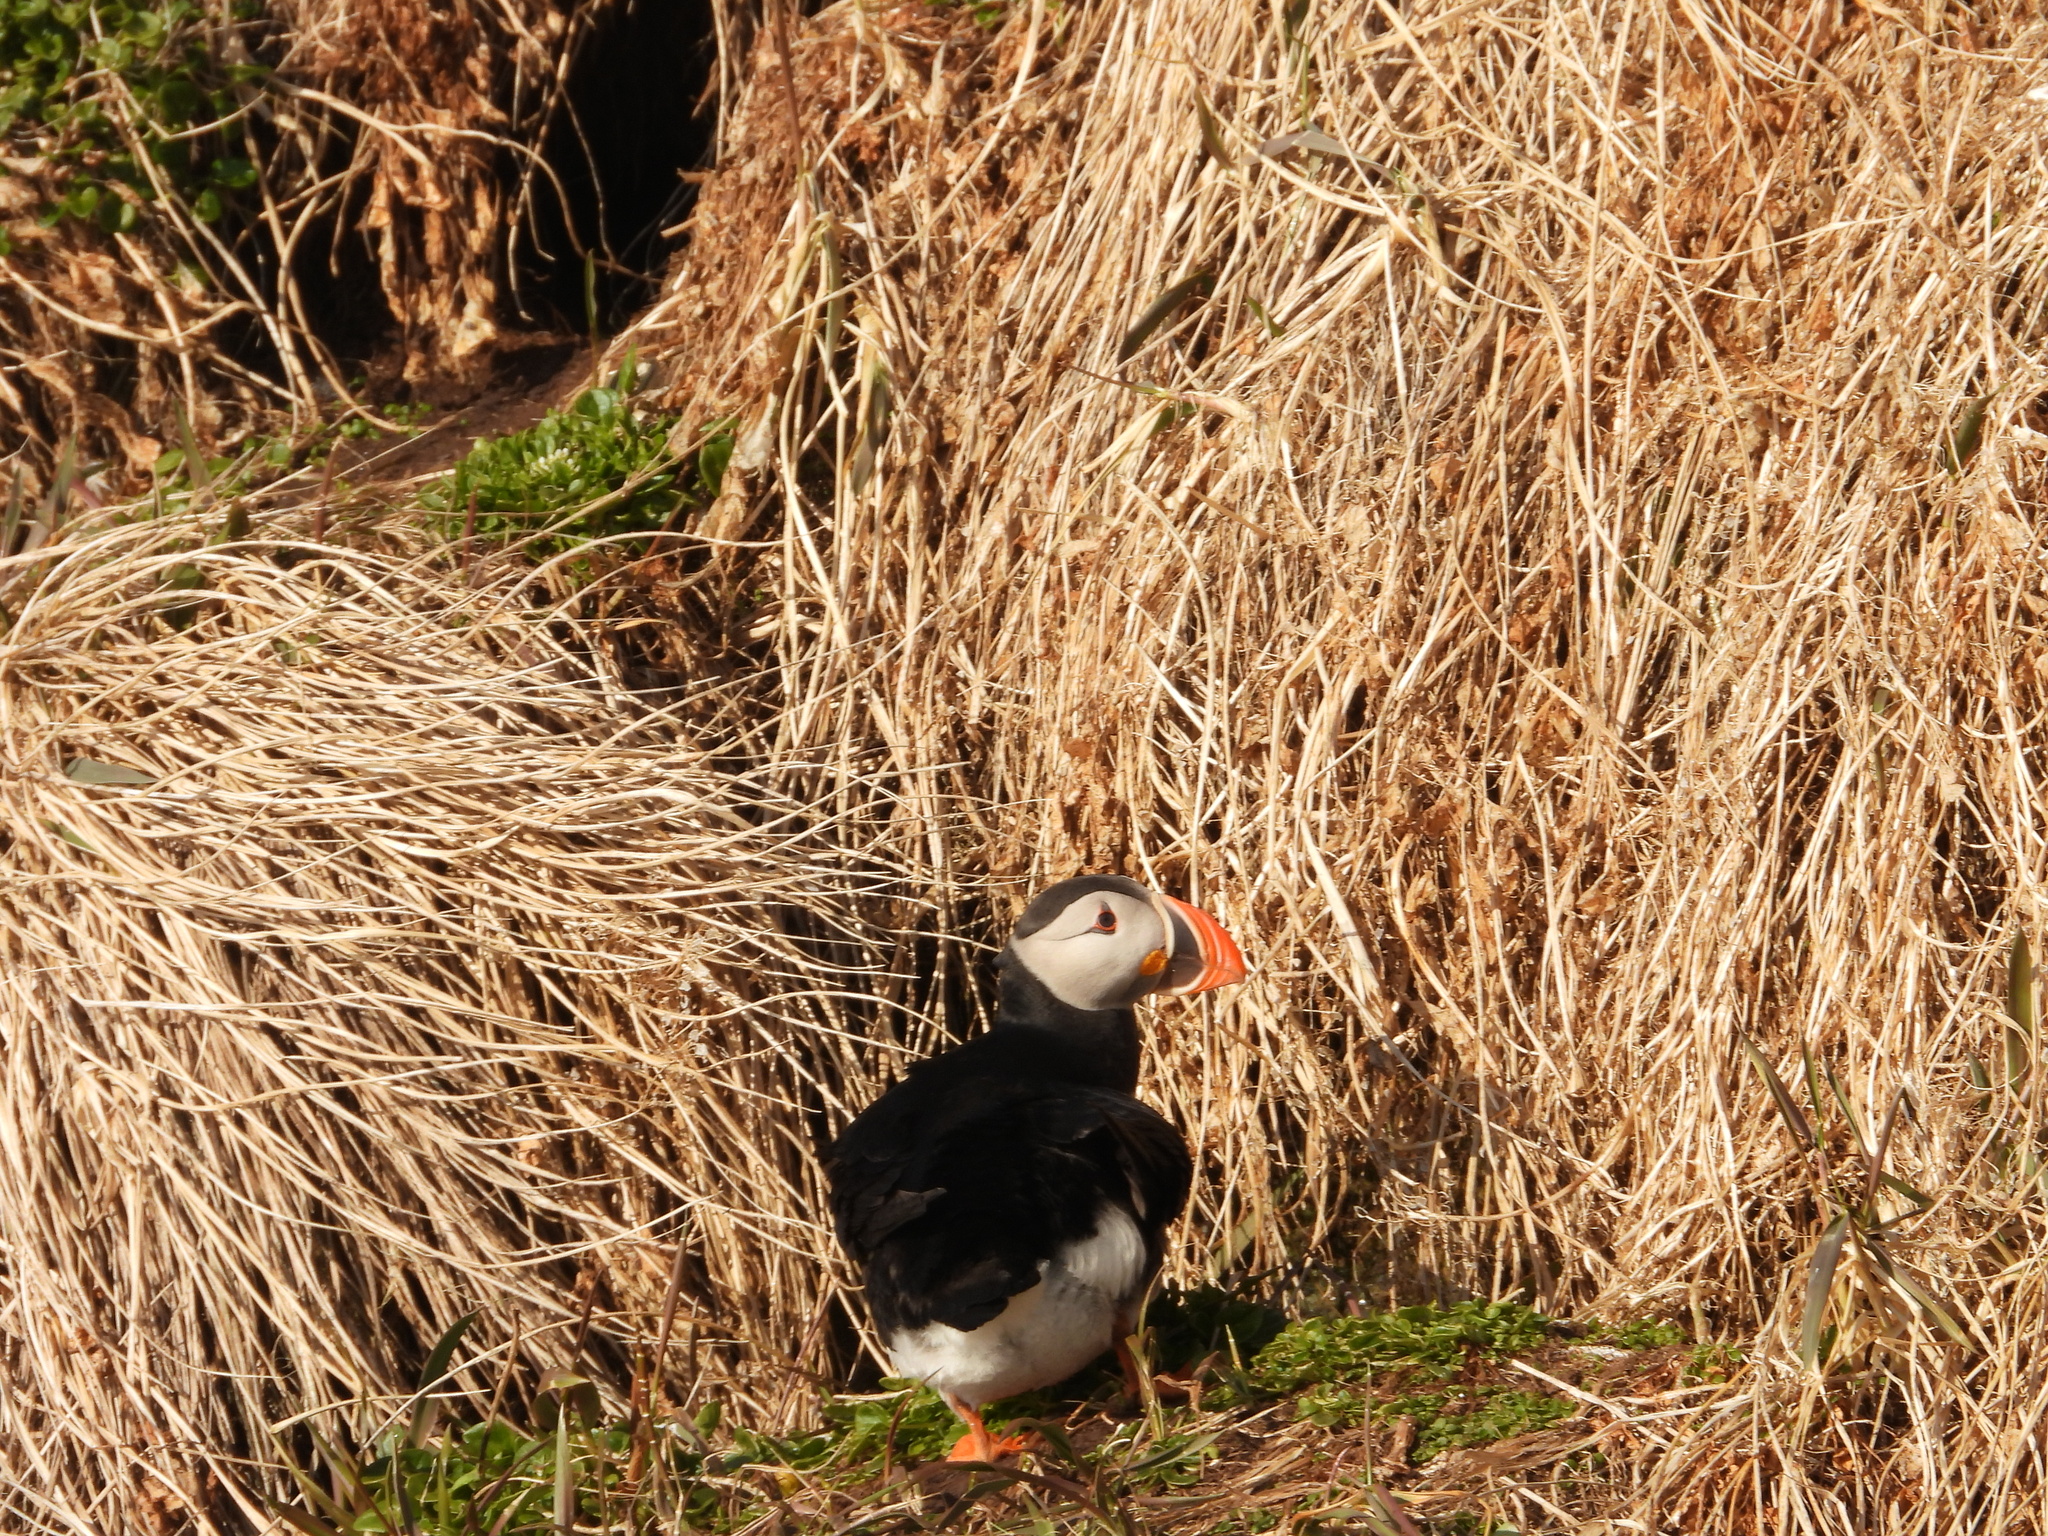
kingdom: Animalia
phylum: Chordata
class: Aves
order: Charadriiformes
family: Alcidae
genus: Fratercula
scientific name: Fratercula arctica
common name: Atlantic puffin
